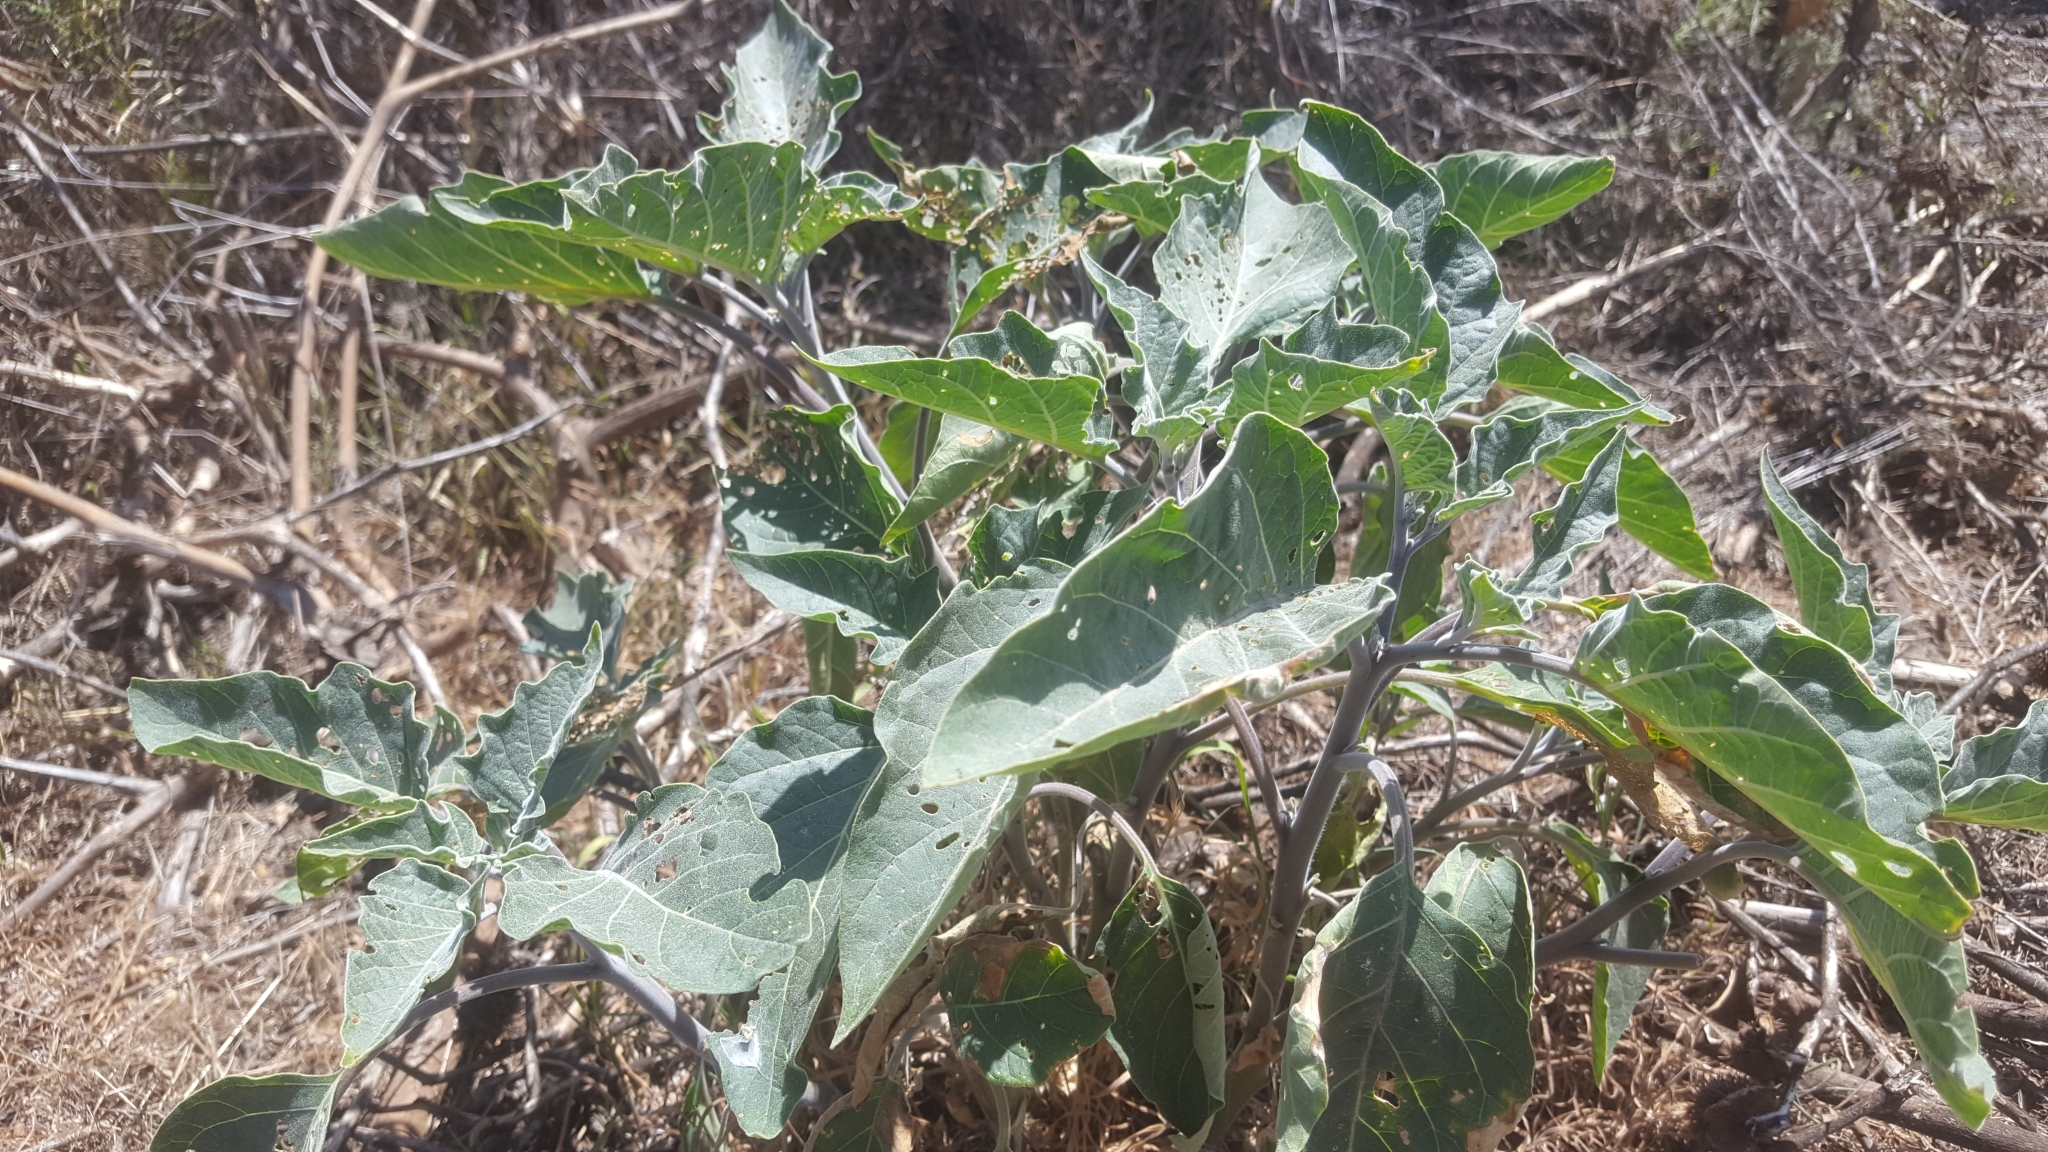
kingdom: Plantae
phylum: Tracheophyta
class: Magnoliopsida
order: Solanales
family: Solanaceae
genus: Datura
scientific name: Datura wrightii
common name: Sacred thorn-apple
